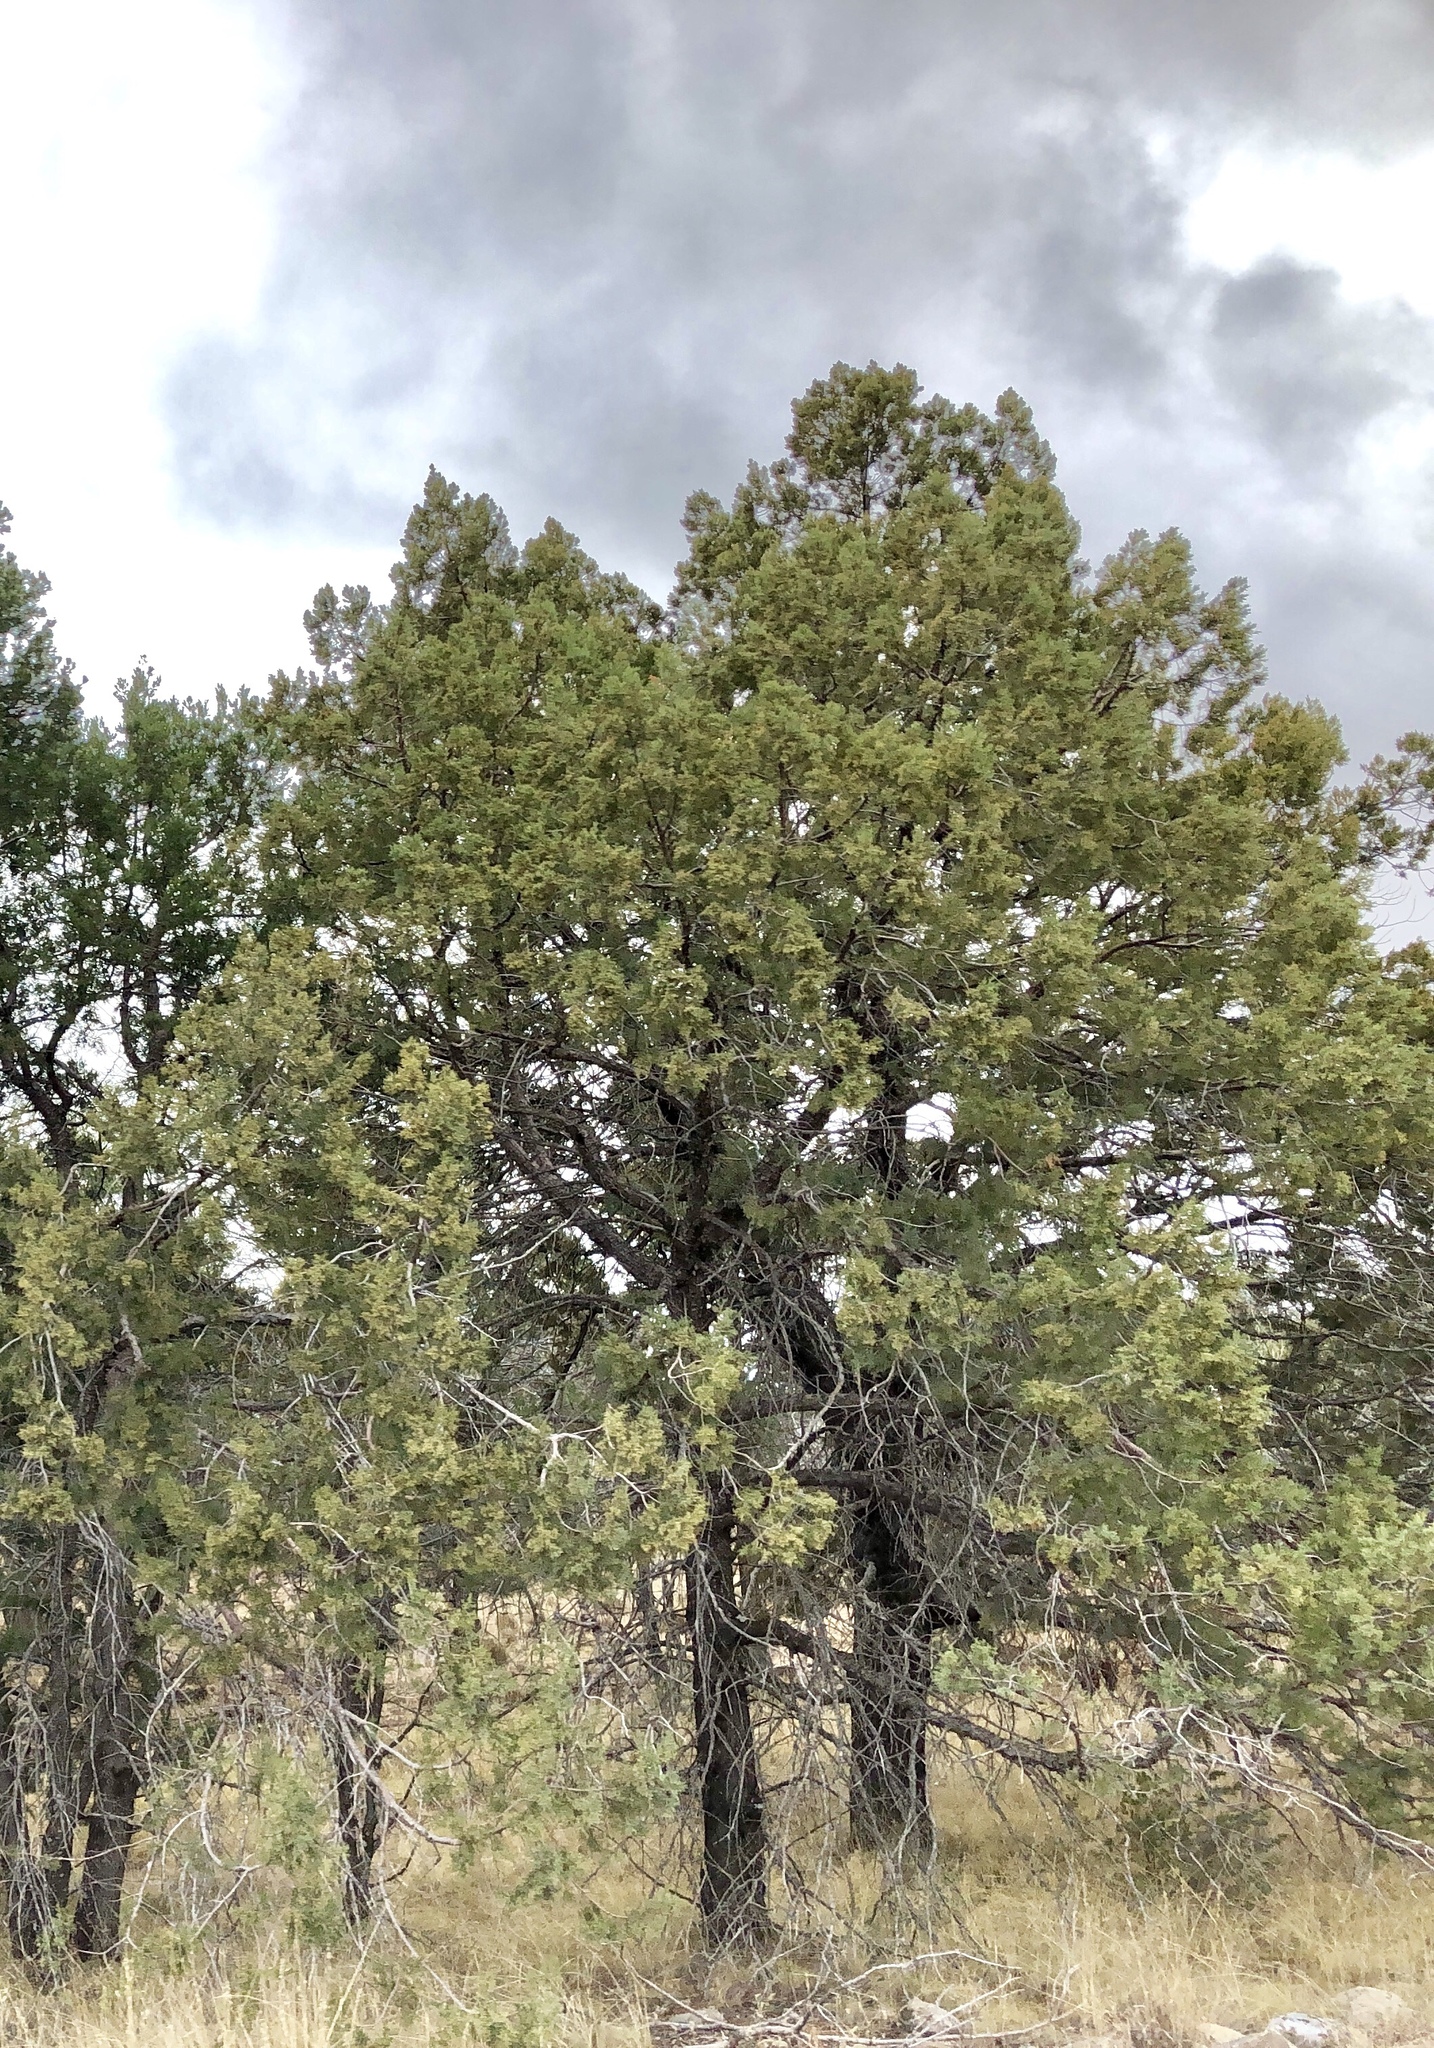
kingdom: Plantae
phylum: Tracheophyta
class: Pinopsida
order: Pinales
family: Cupressaceae
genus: Juniperus
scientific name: Juniperus deppeana
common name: Alligator juniper
